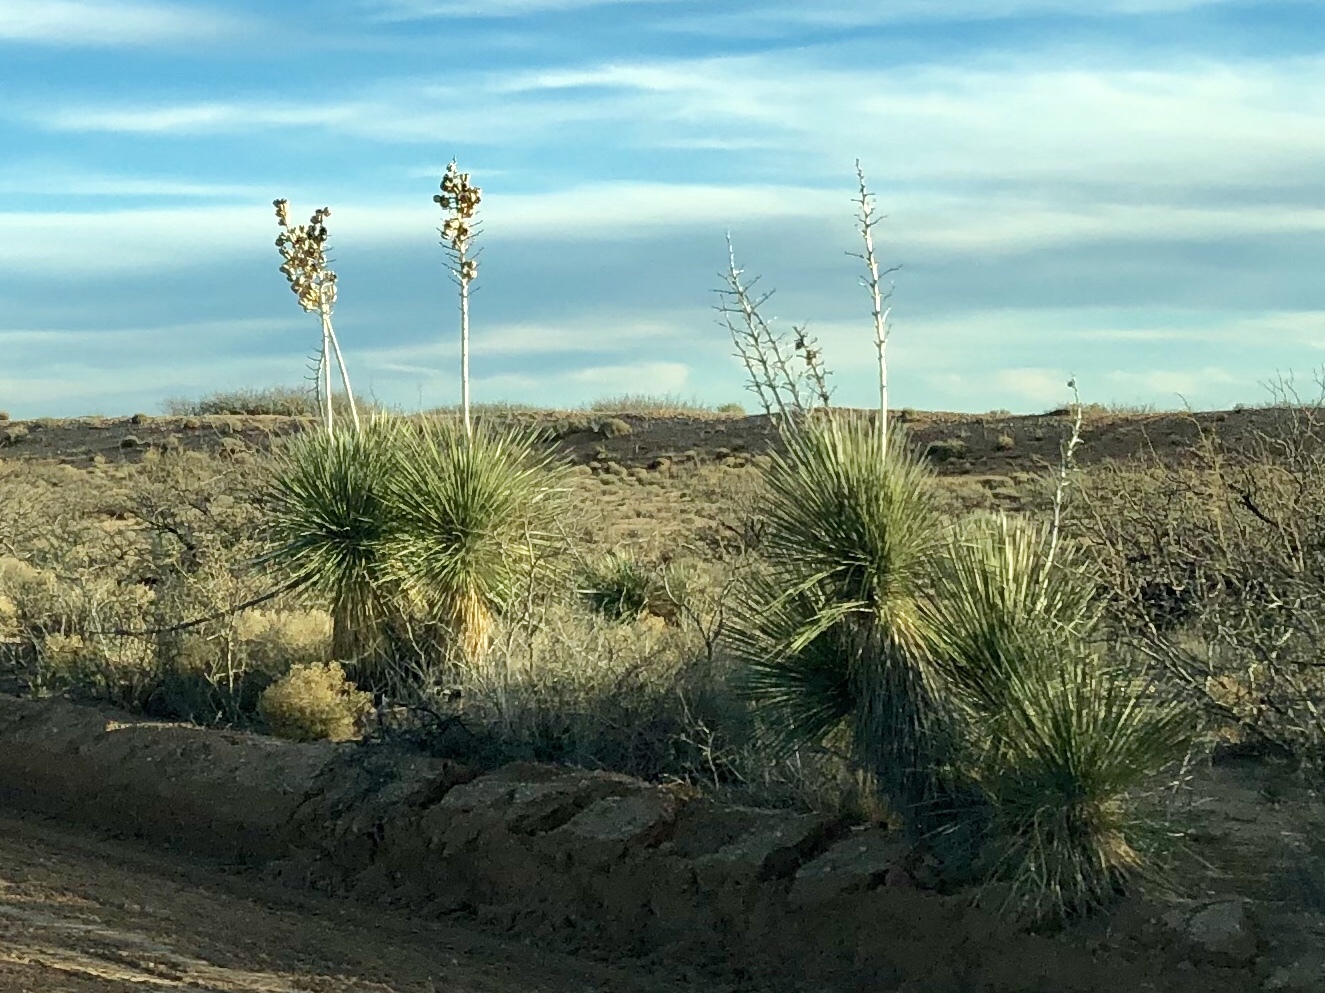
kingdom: Plantae
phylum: Tracheophyta
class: Liliopsida
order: Asparagales
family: Asparagaceae
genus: Yucca
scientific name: Yucca elata
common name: Palmella
